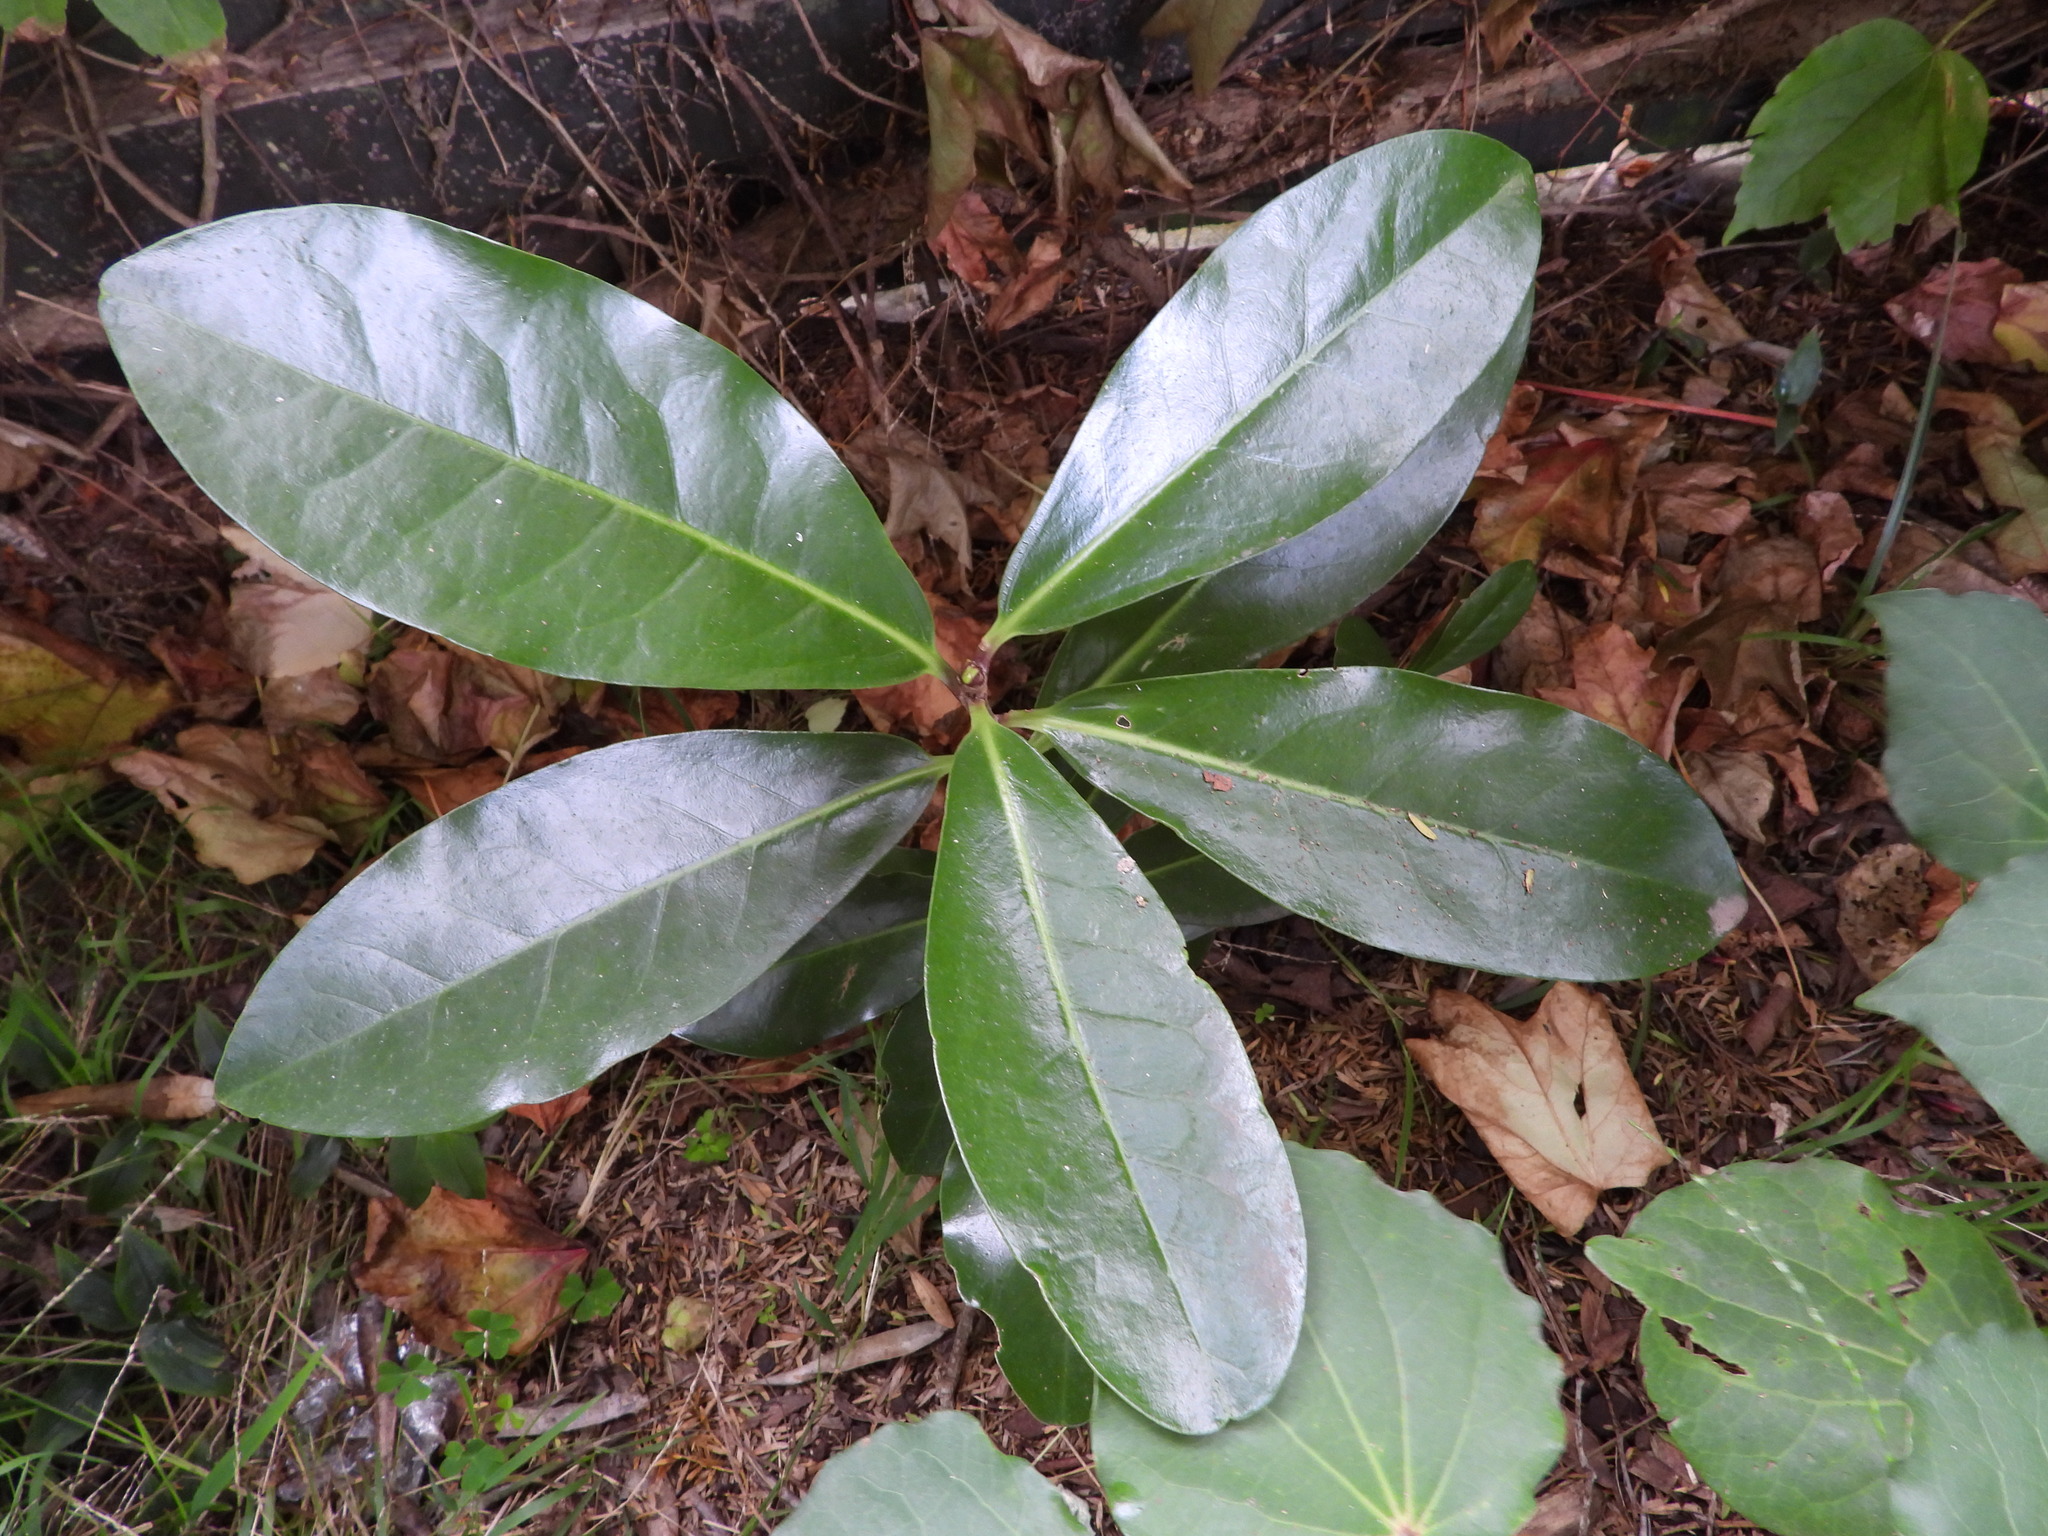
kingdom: Plantae
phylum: Tracheophyta
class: Magnoliopsida
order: Cucurbitales
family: Corynocarpaceae
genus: Corynocarpus
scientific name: Corynocarpus laevigatus
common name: New zealand laurel
